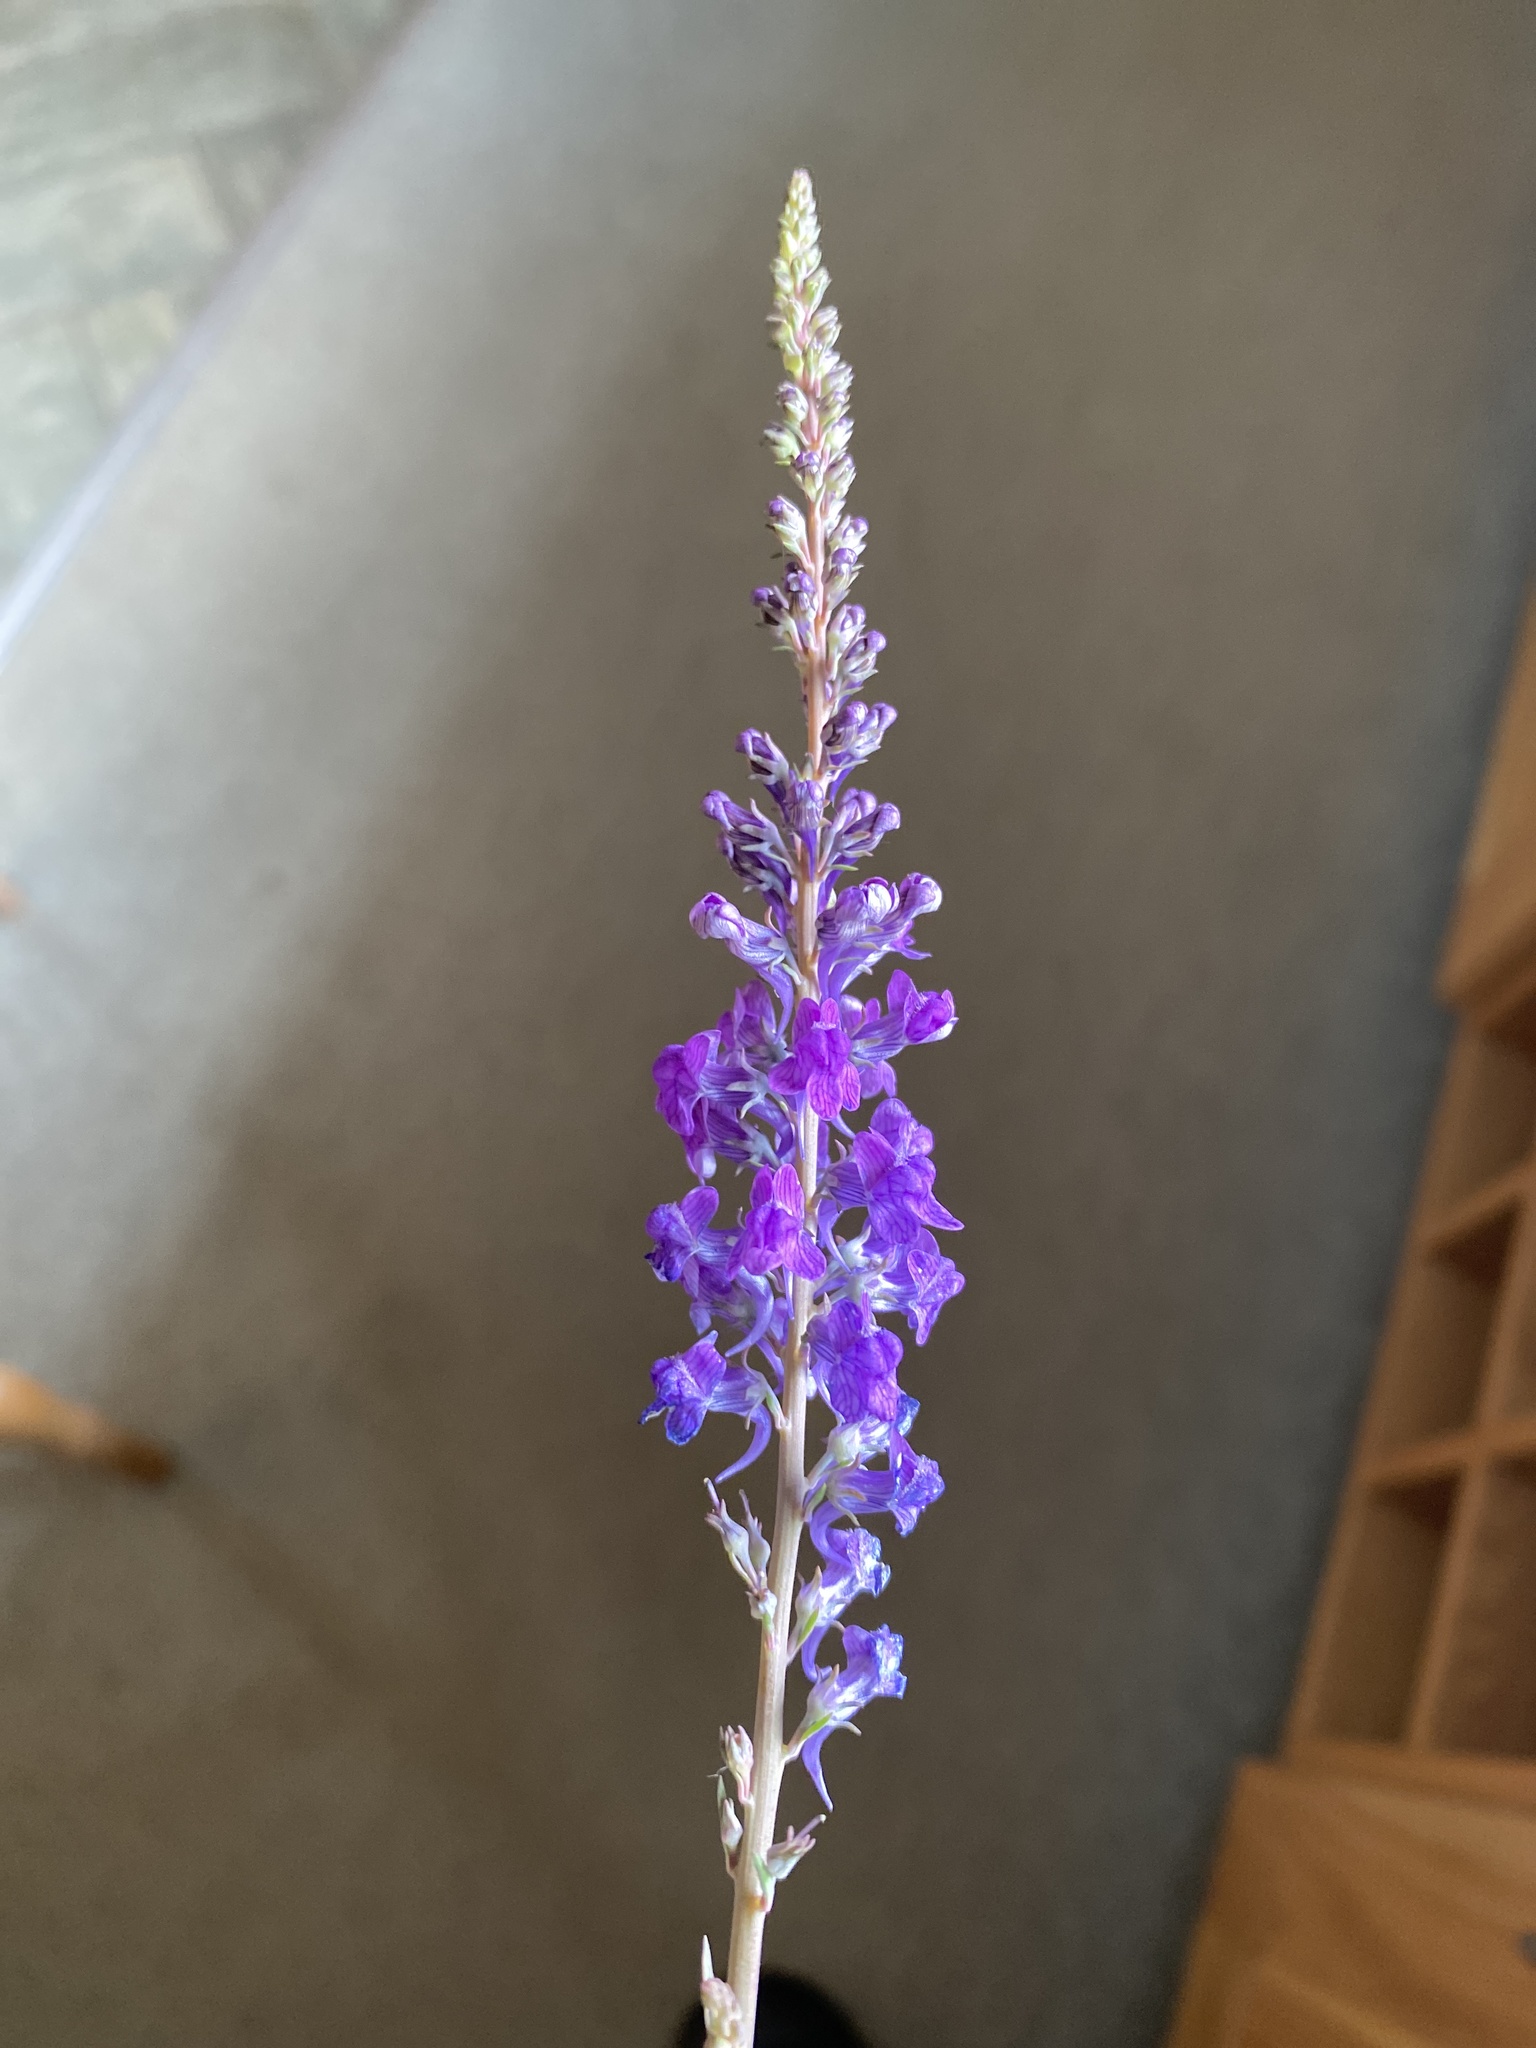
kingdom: Plantae
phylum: Tracheophyta
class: Magnoliopsida
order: Lamiales
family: Plantaginaceae
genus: Linaria
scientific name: Linaria purpurea
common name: Purple toadflax
